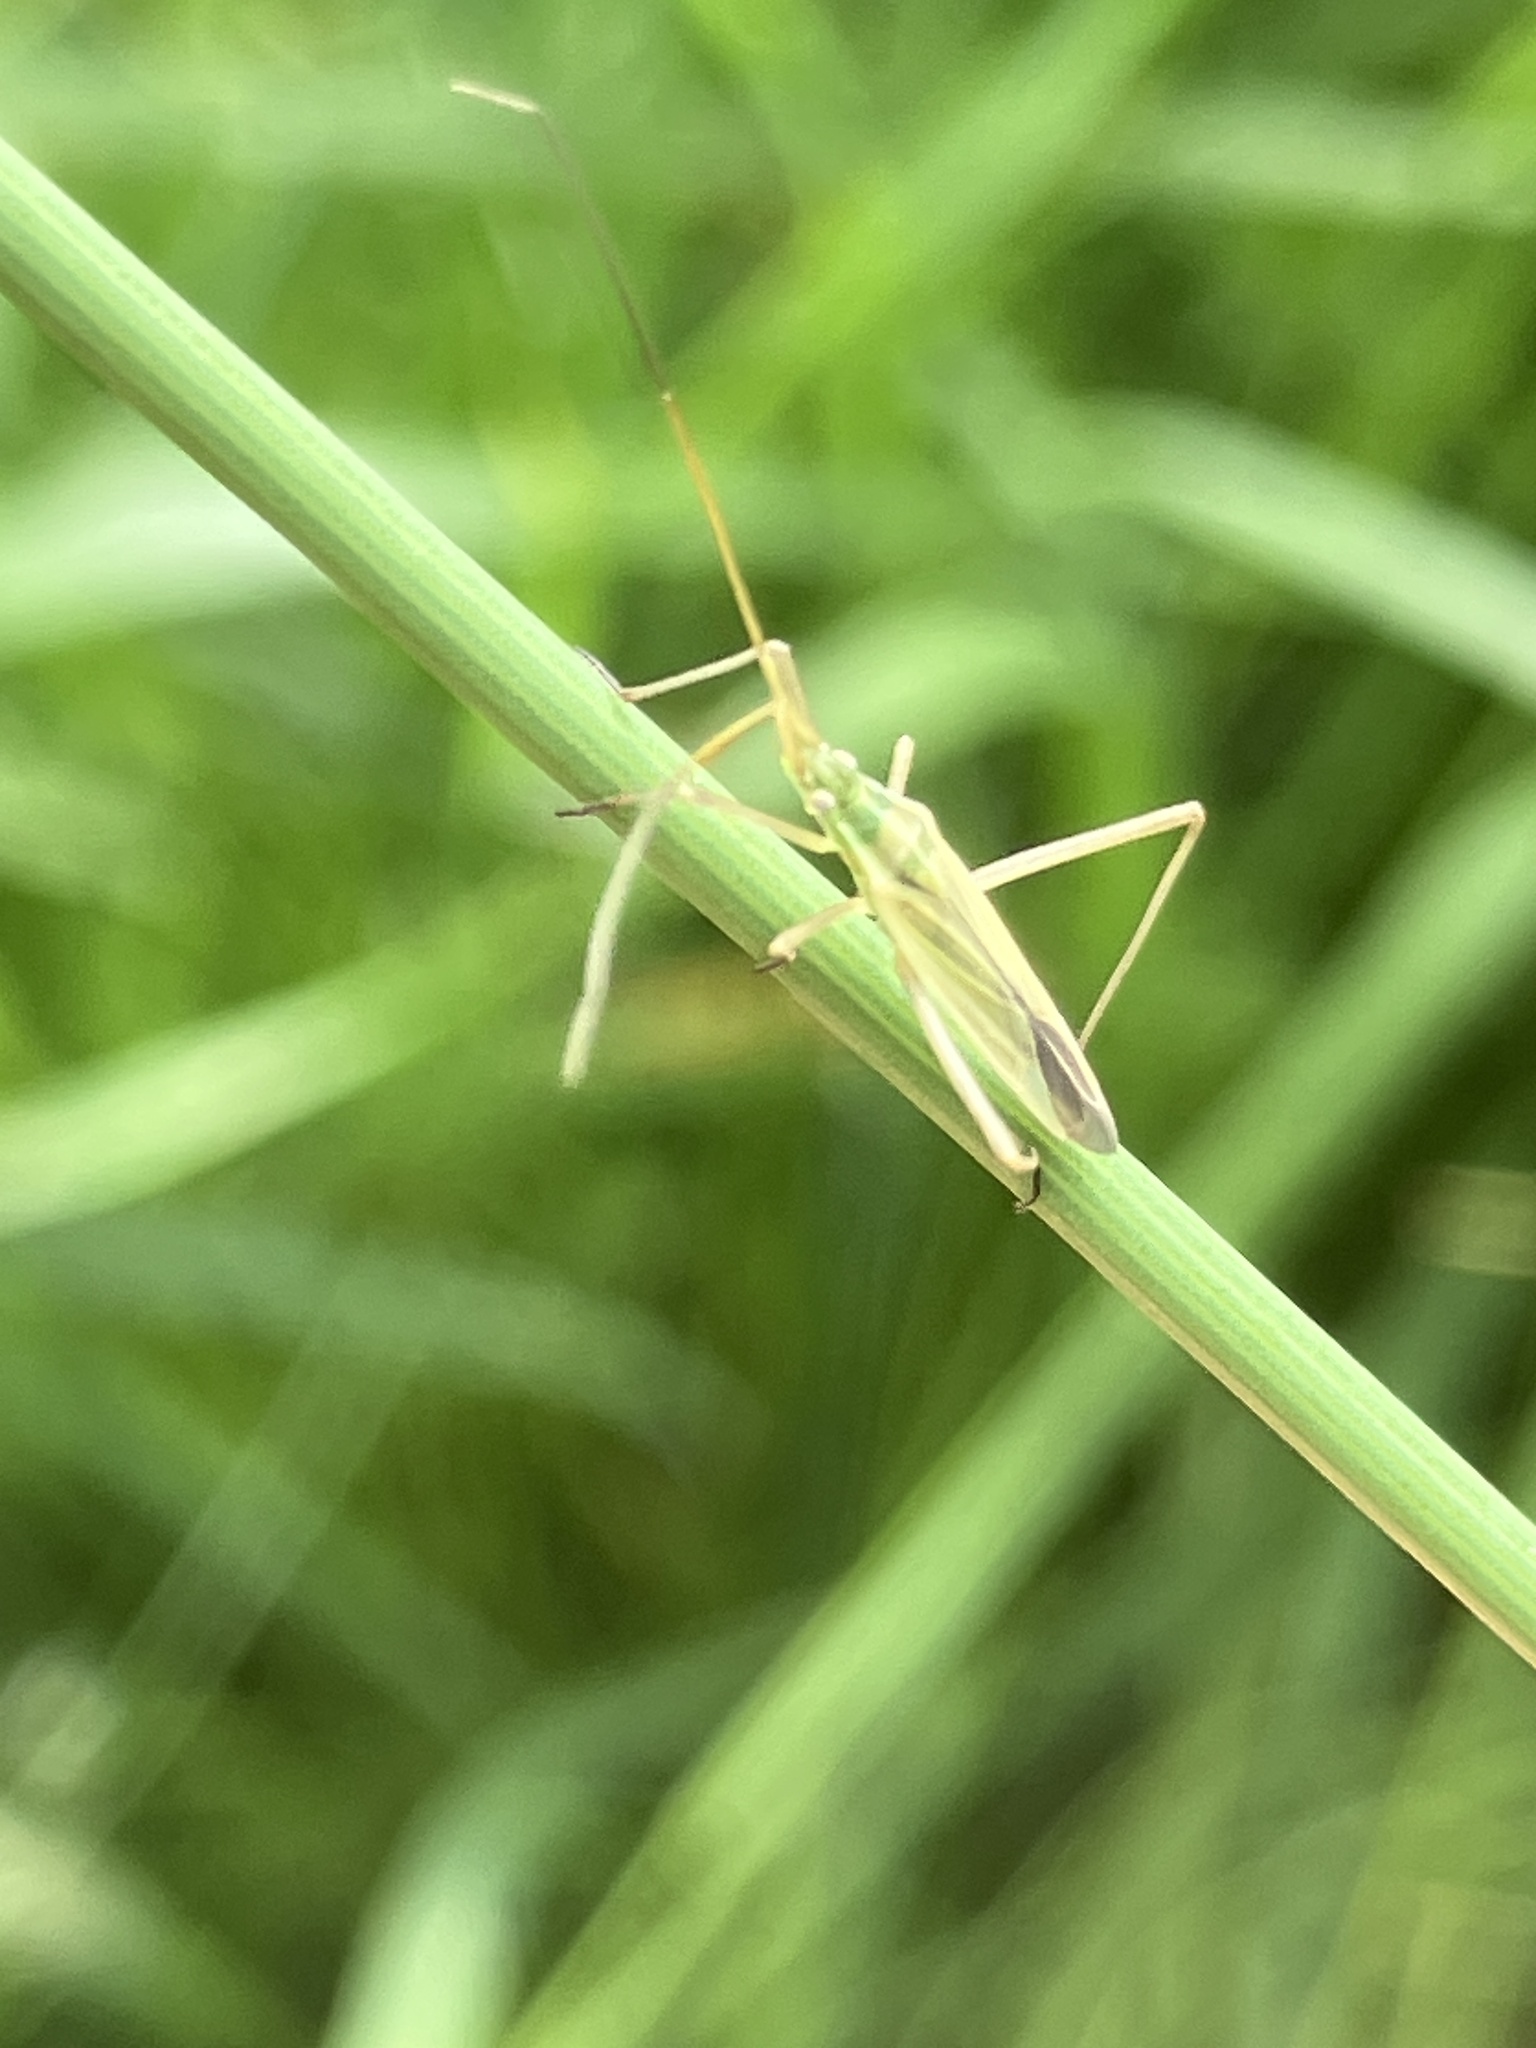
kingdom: Animalia
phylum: Arthropoda
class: Insecta
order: Hemiptera
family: Miridae
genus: Megaloceroea
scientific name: Megaloceroea recticornis
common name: Plant bug
